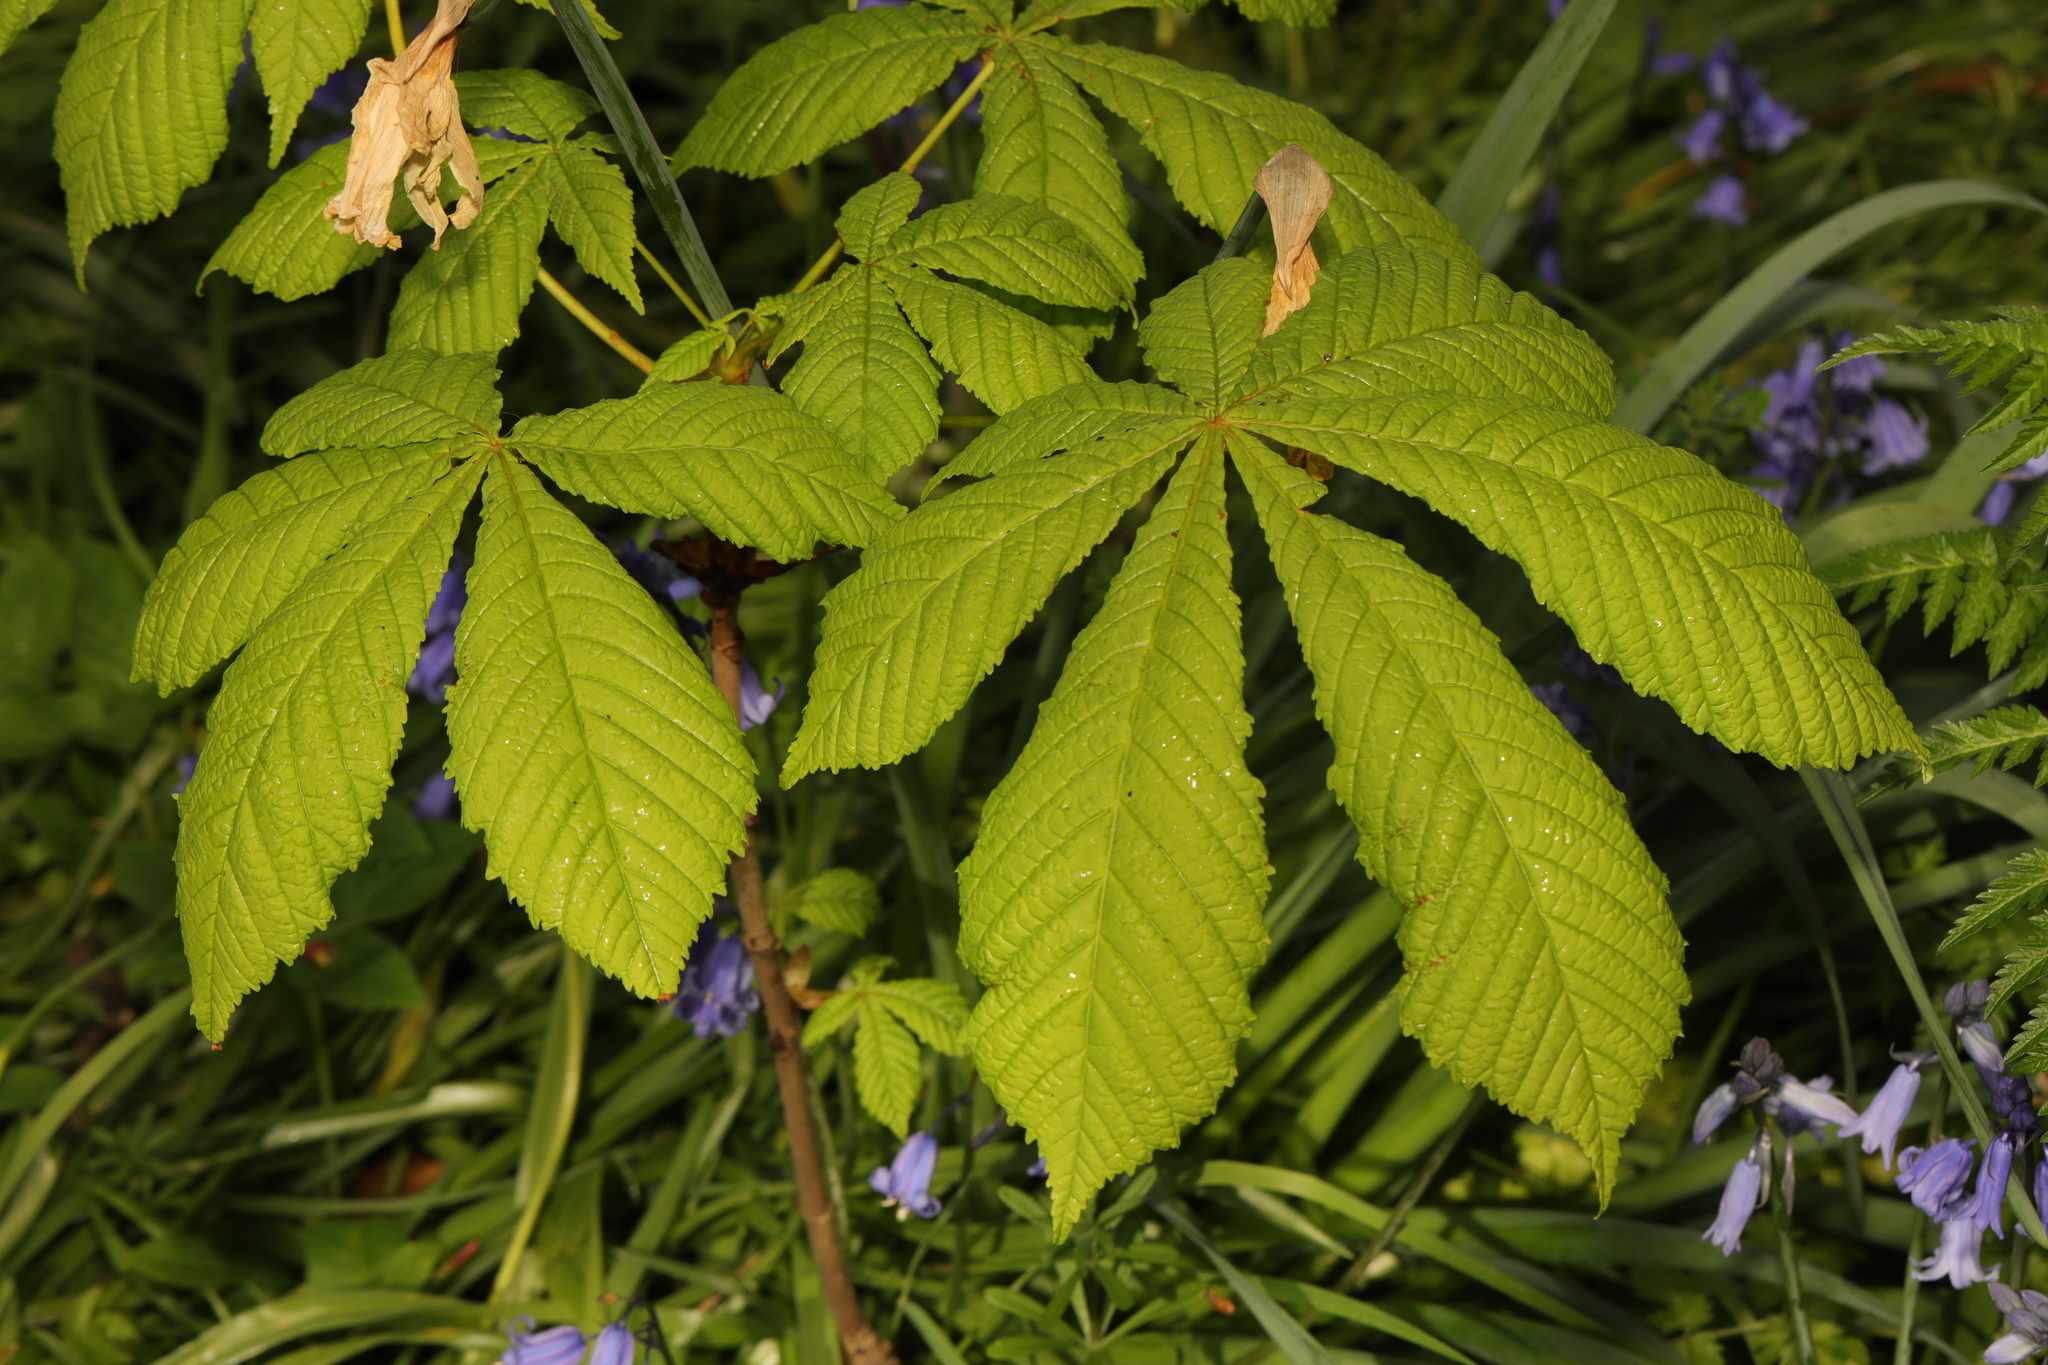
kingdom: Plantae
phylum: Tracheophyta
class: Magnoliopsida
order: Sapindales
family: Sapindaceae
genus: Aesculus
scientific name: Aesculus hippocastanum
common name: Horse-chestnut
